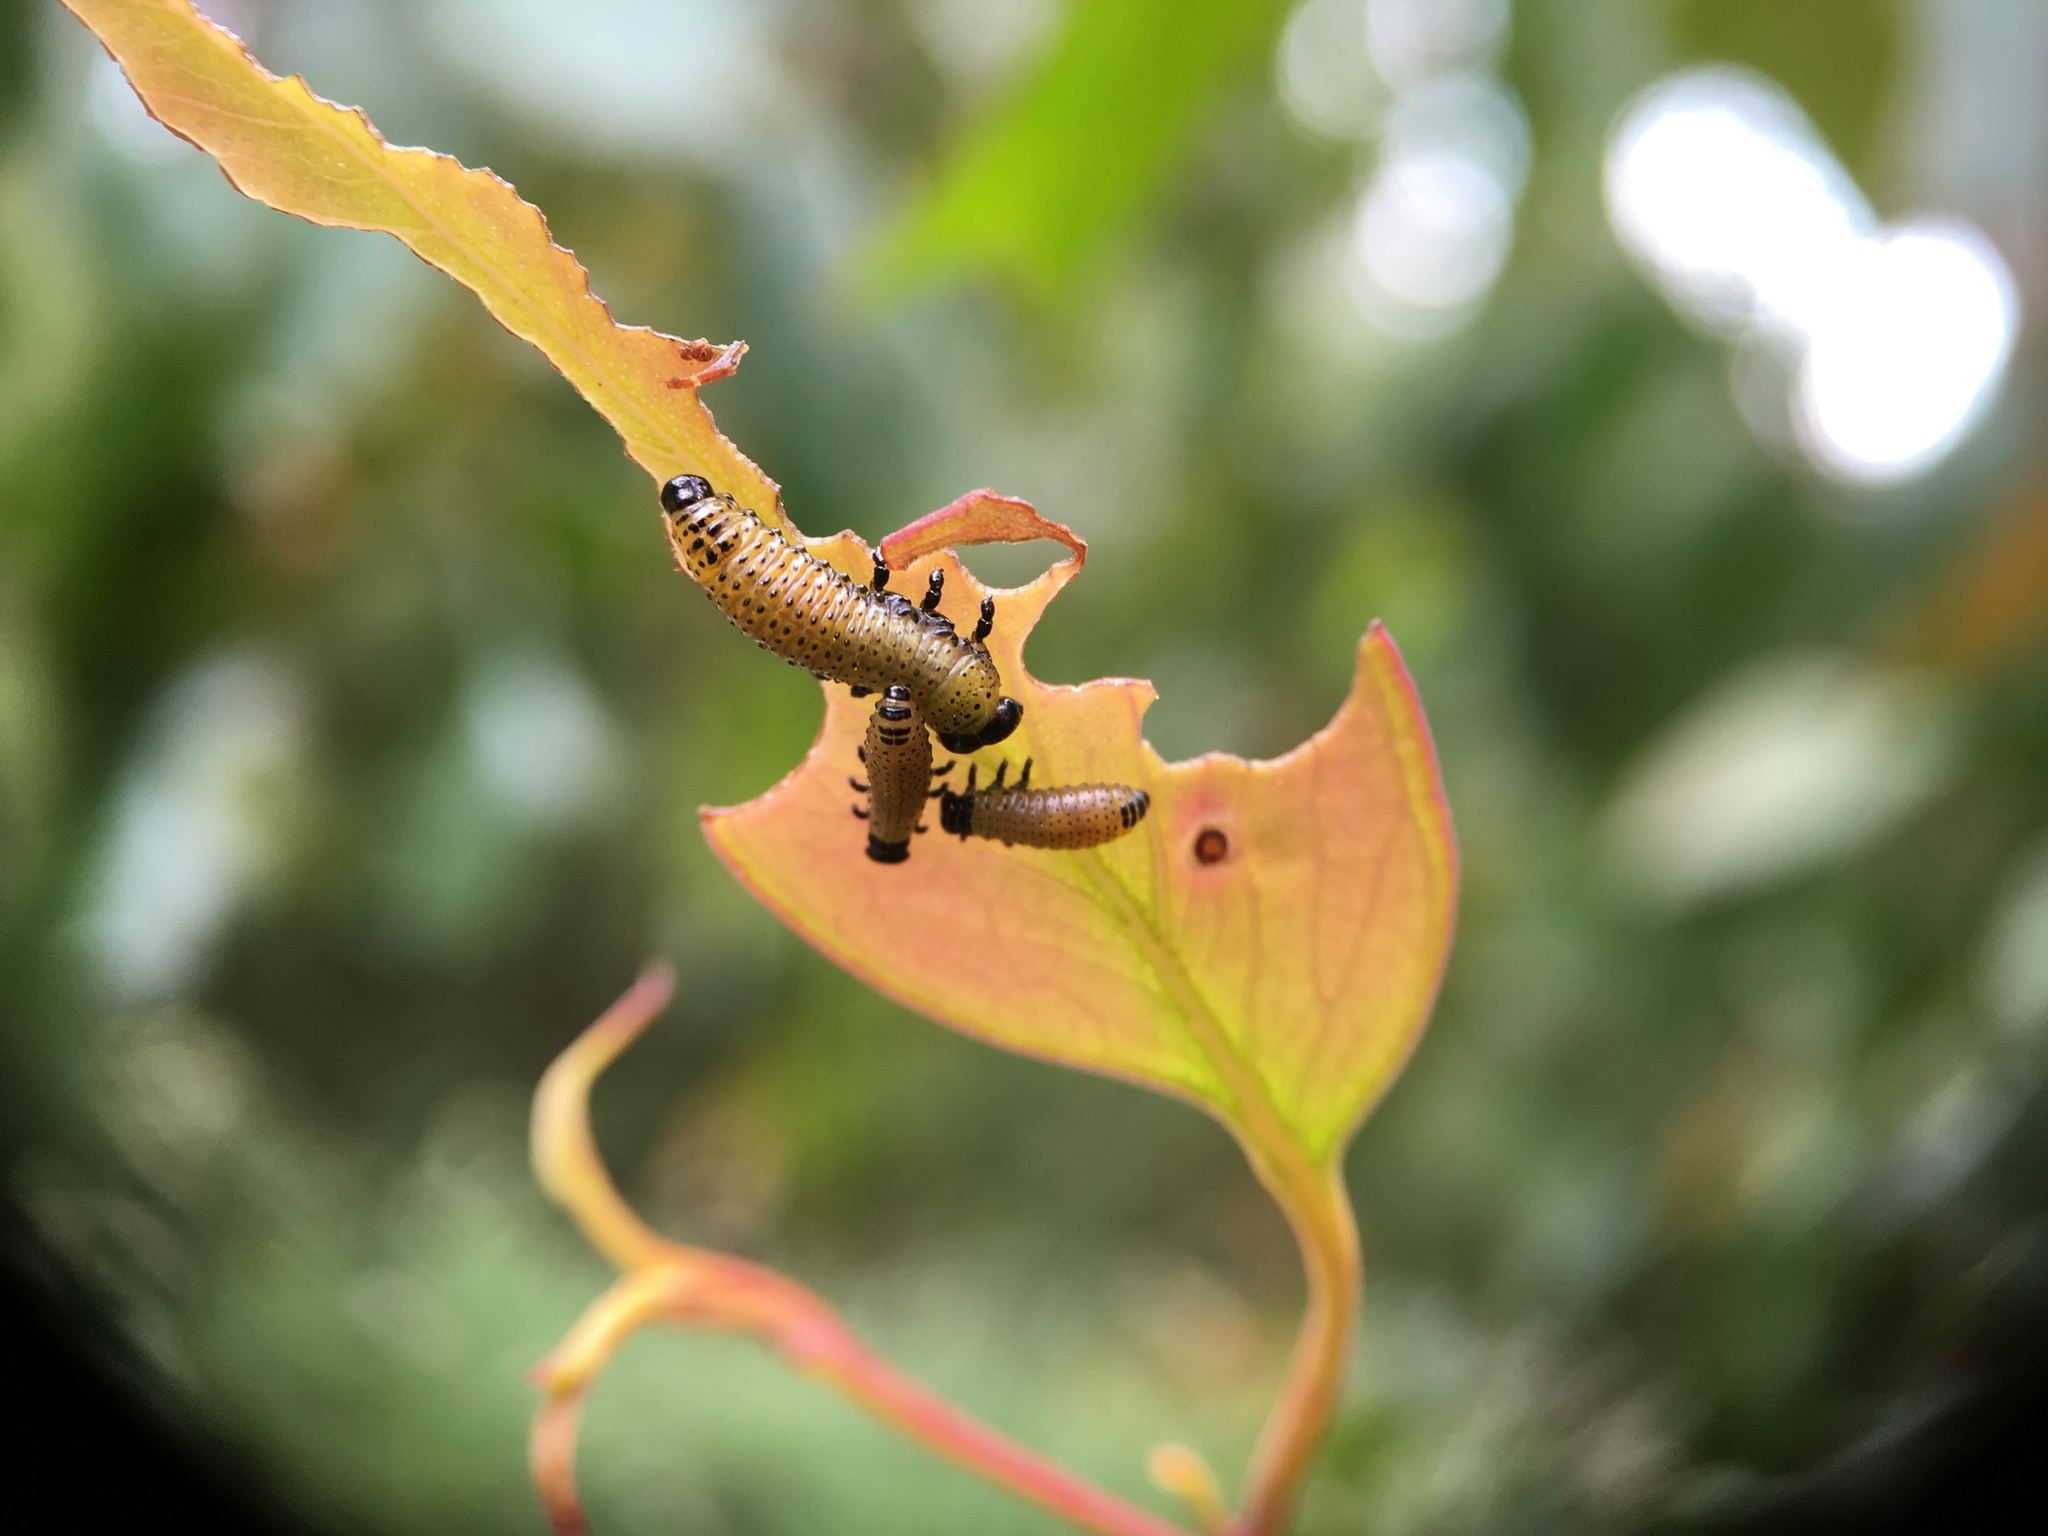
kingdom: Animalia
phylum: Arthropoda
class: Insecta
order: Coleoptera
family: Chrysomelidae
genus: Paropsis
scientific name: Paropsis charybdis
